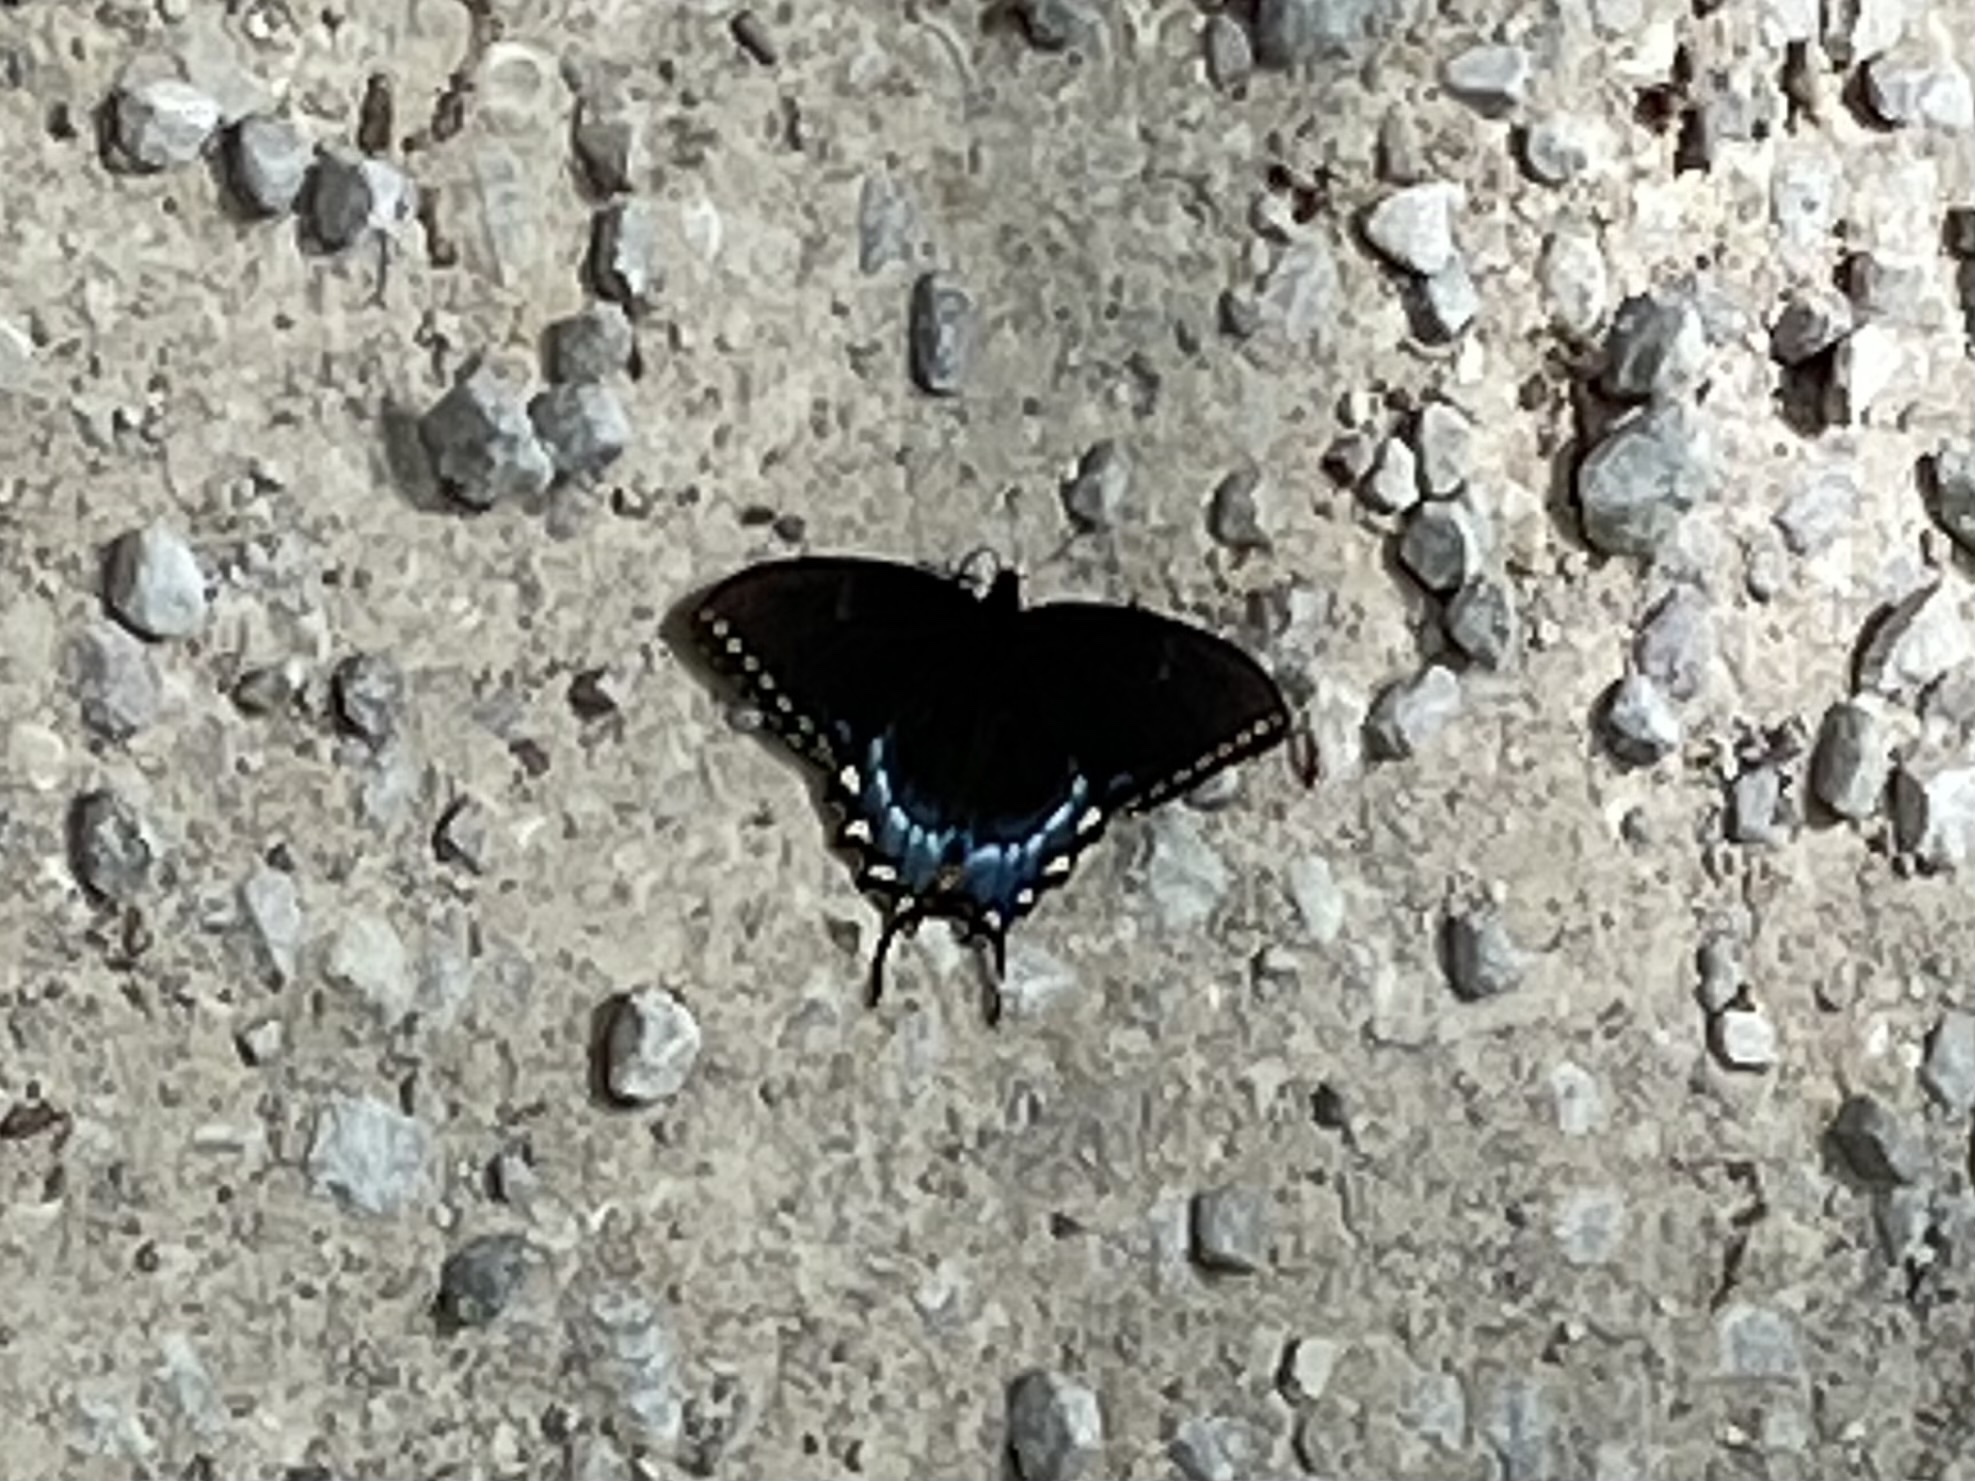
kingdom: Animalia
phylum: Arthropoda
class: Insecta
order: Lepidoptera
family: Papilionidae
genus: Papilio
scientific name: Papilio glaucus
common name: Tiger swallowtail
